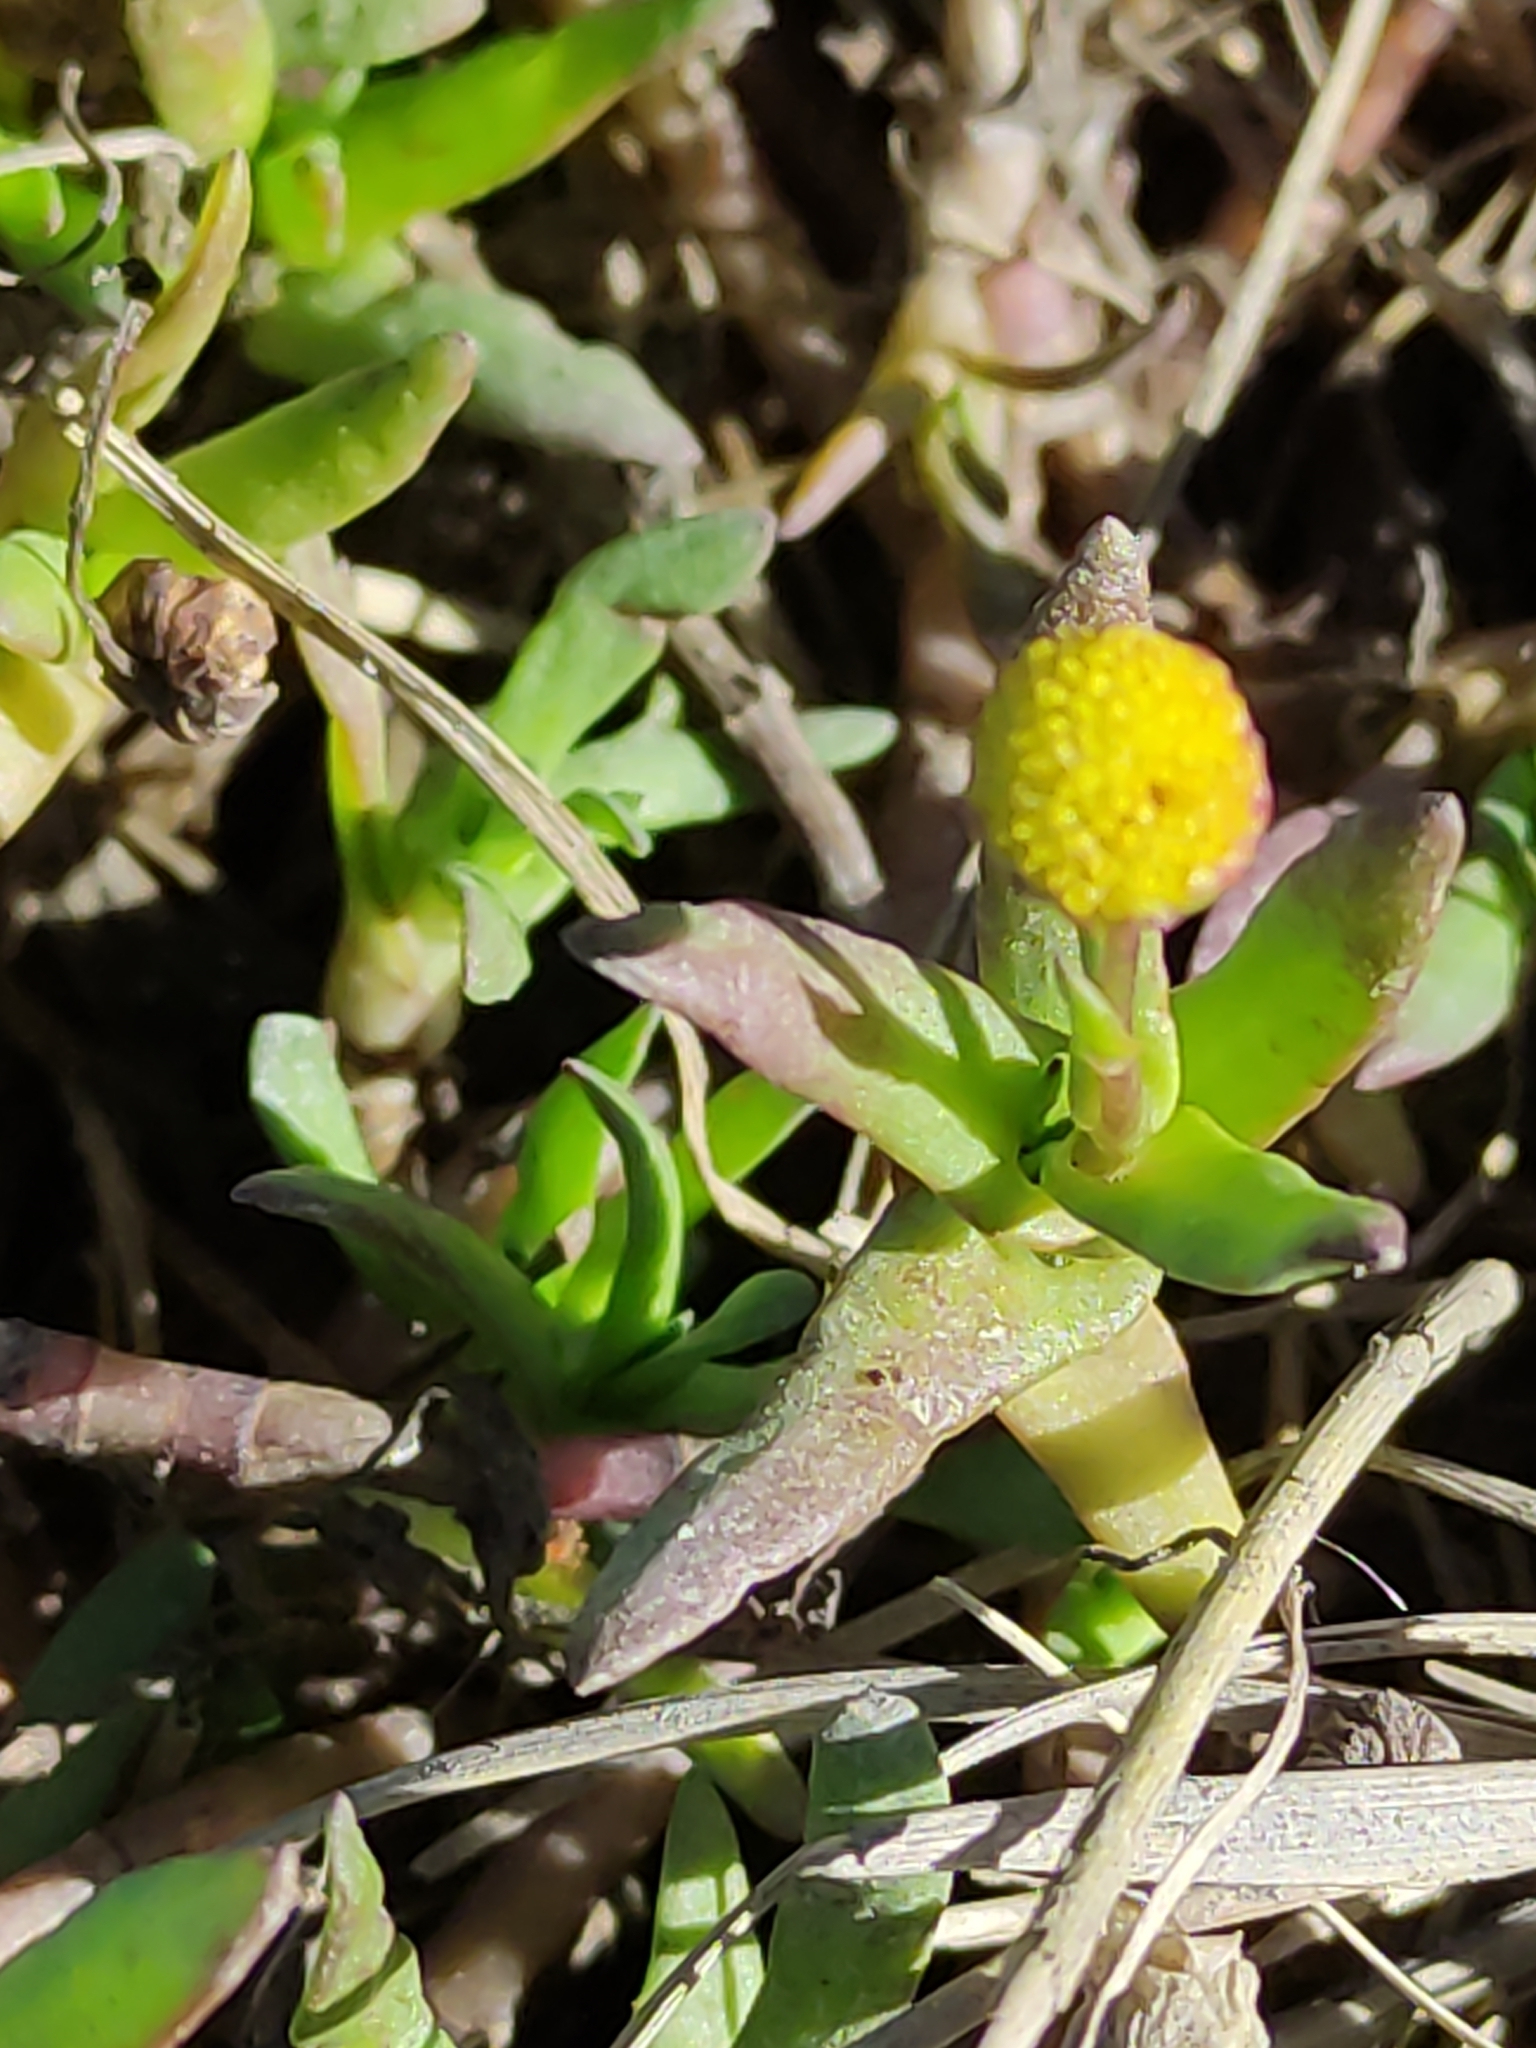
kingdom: Plantae
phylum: Tracheophyta
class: Magnoliopsida
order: Asterales
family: Asteraceae
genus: Cotula
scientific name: Cotula coronopifolia
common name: Buttonweed
